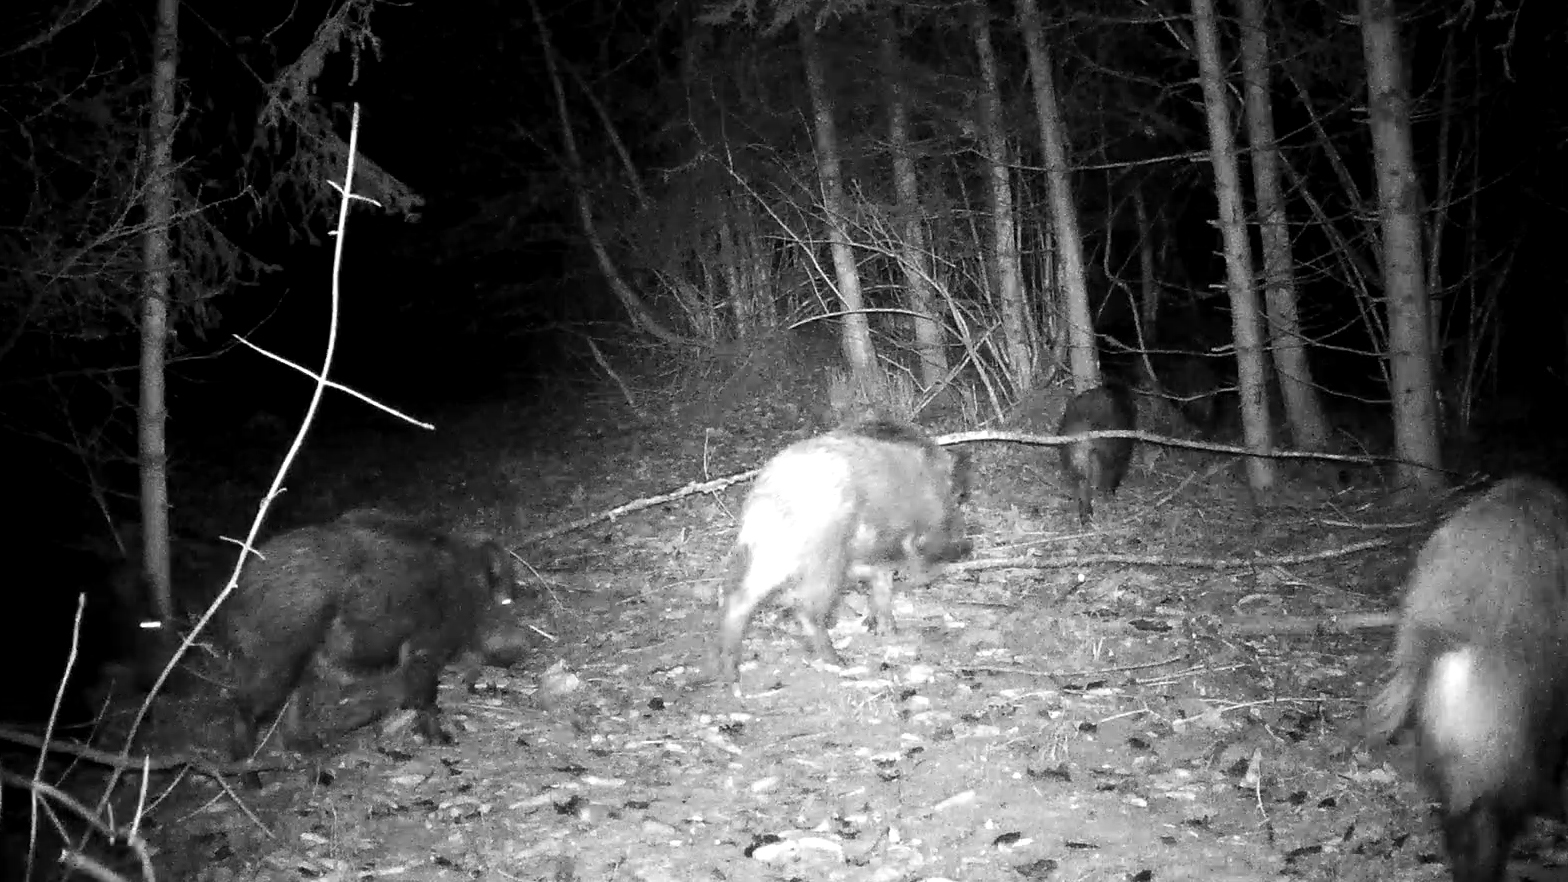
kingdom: Animalia
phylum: Chordata
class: Mammalia
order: Artiodactyla
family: Suidae
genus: Sus
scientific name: Sus scrofa
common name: Wild boar
